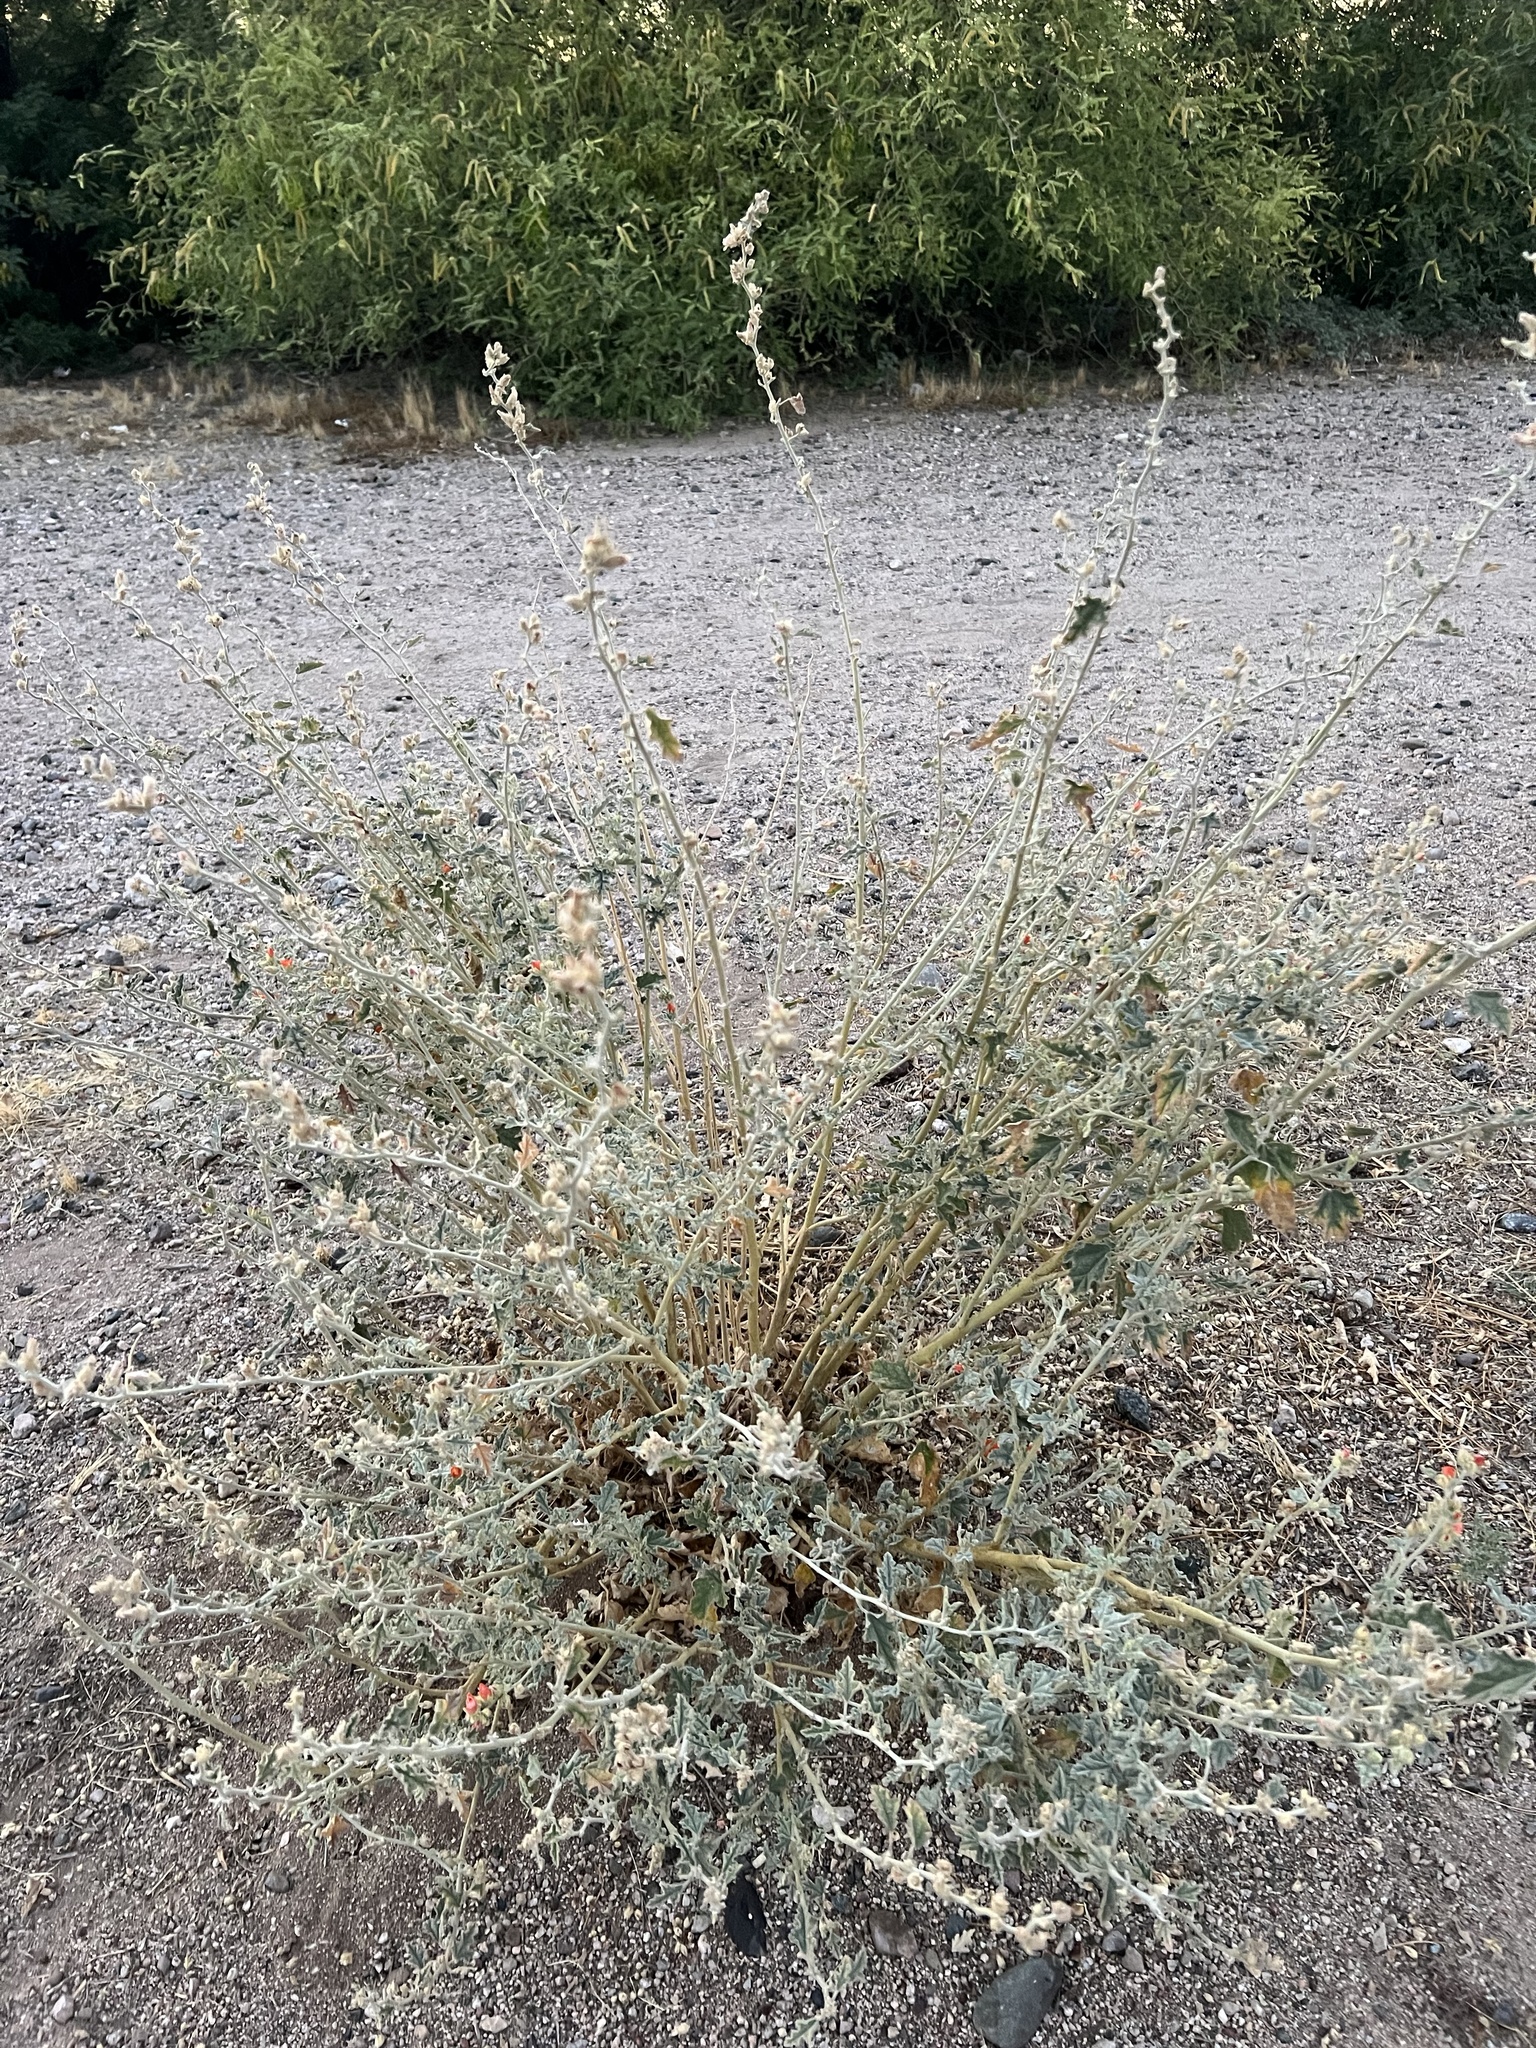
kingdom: Plantae
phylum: Tracheophyta
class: Magnoliopsida
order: Malvales
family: Malvaceae
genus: Sphaeralcea
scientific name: Sphaeralcea ambigua
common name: Apricot globe-mallow
